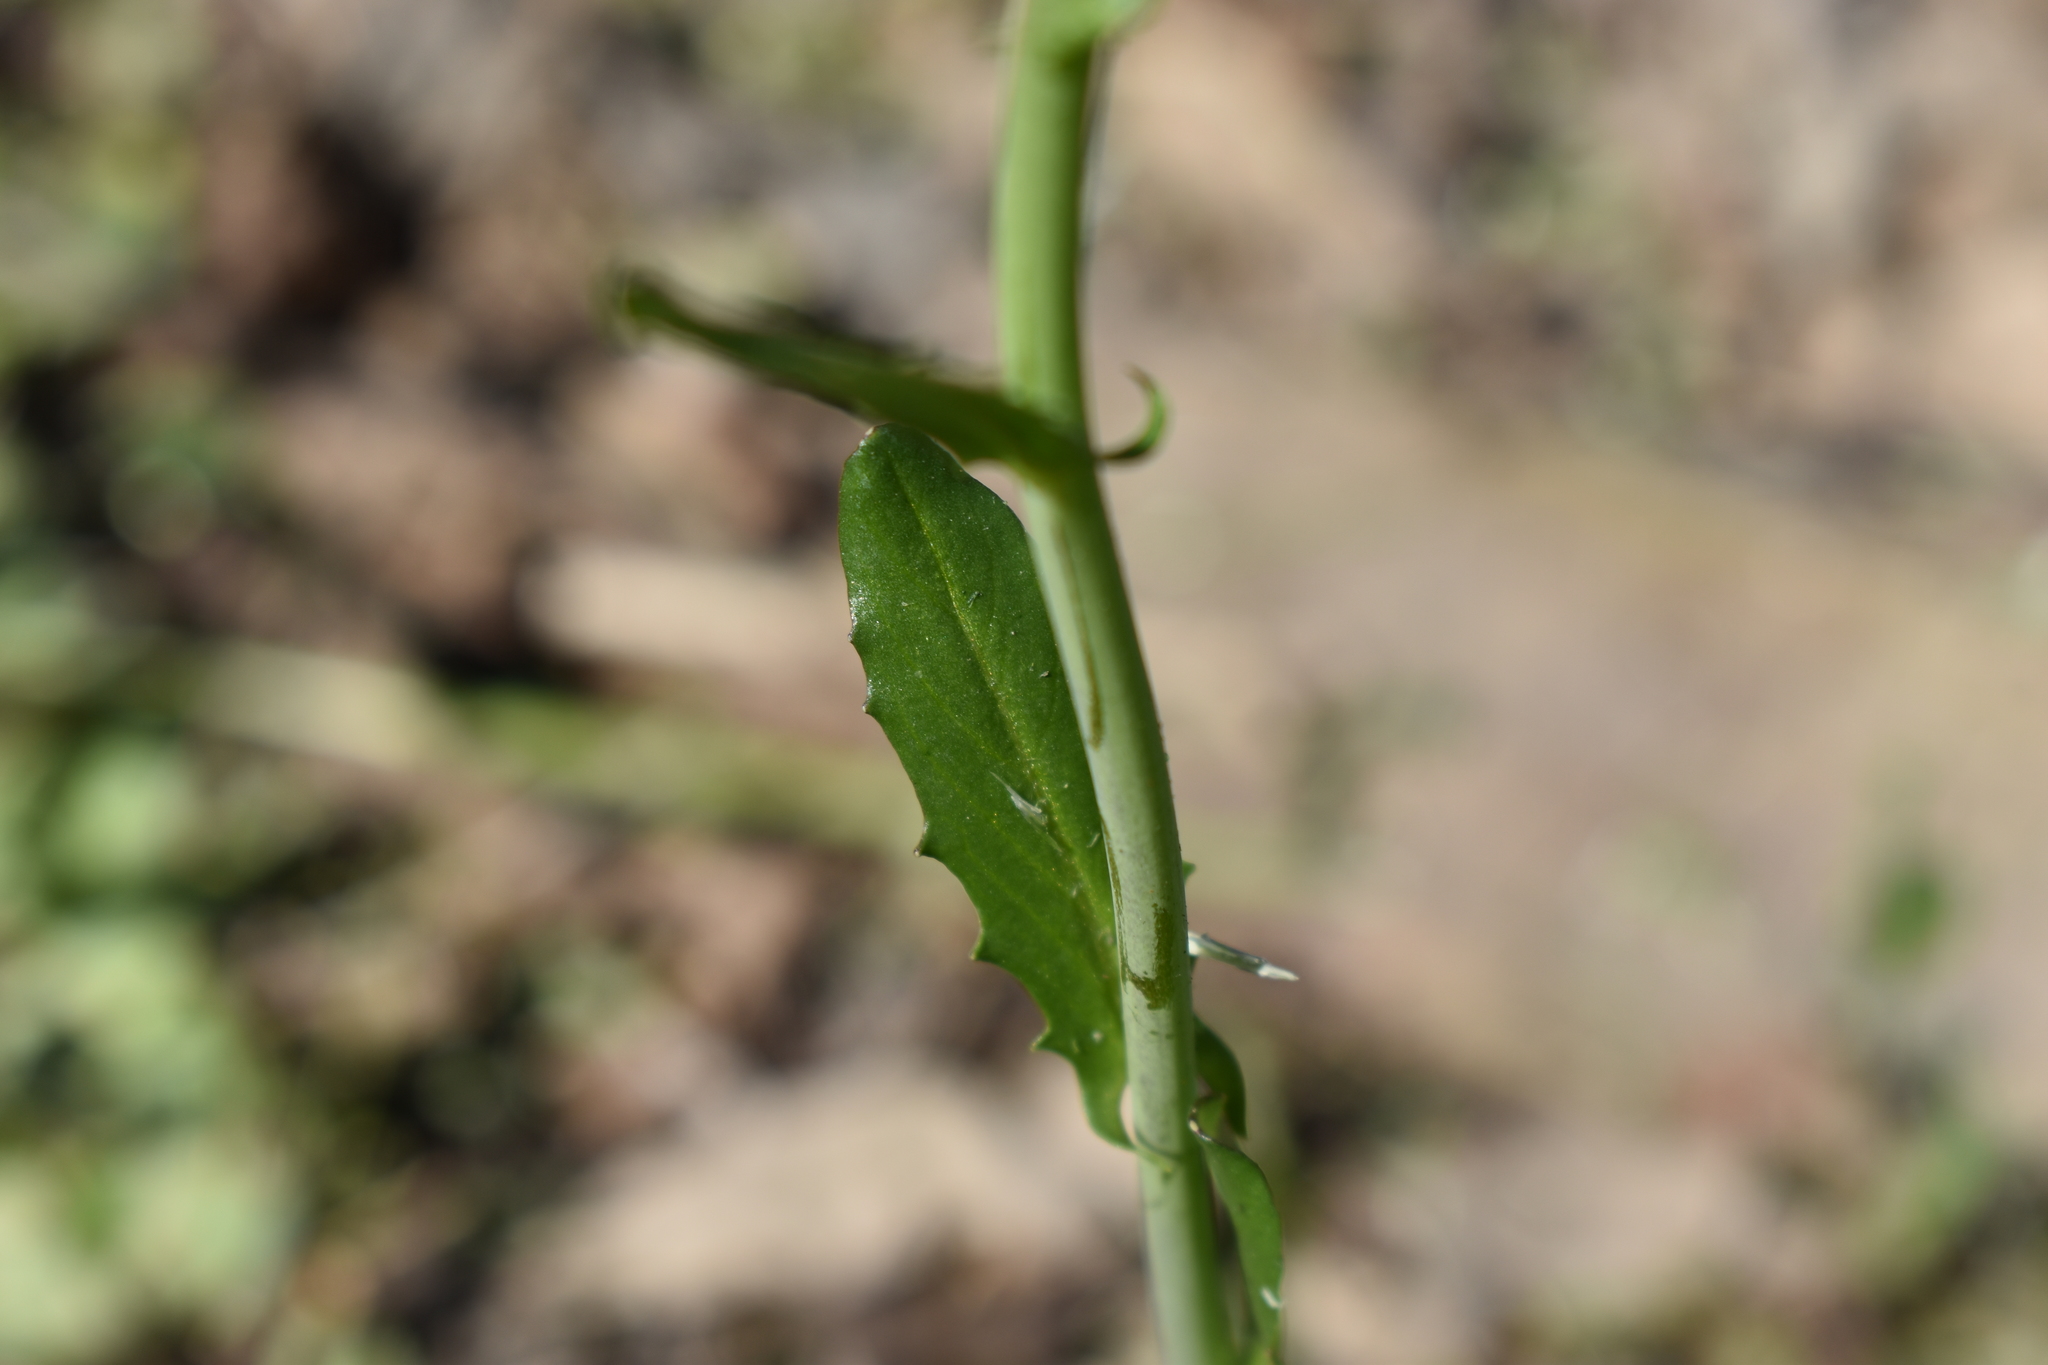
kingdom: Plantae
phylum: Tracheophyta
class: Magnoliopsida
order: Brassicales
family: Brassicaceae
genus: Mummenhoffia
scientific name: Mummenhoffia alliacea
